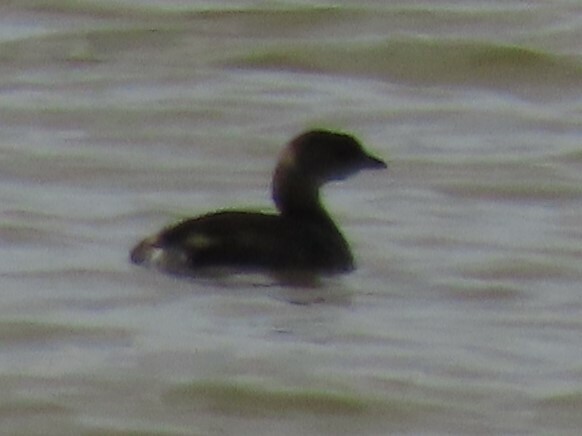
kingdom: Animalia
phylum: Chordata
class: Aves
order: Podicipediformes
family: Podicipedidae
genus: Podilymbus
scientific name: Podilymbus podiceps
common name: Pied-billed grebe
